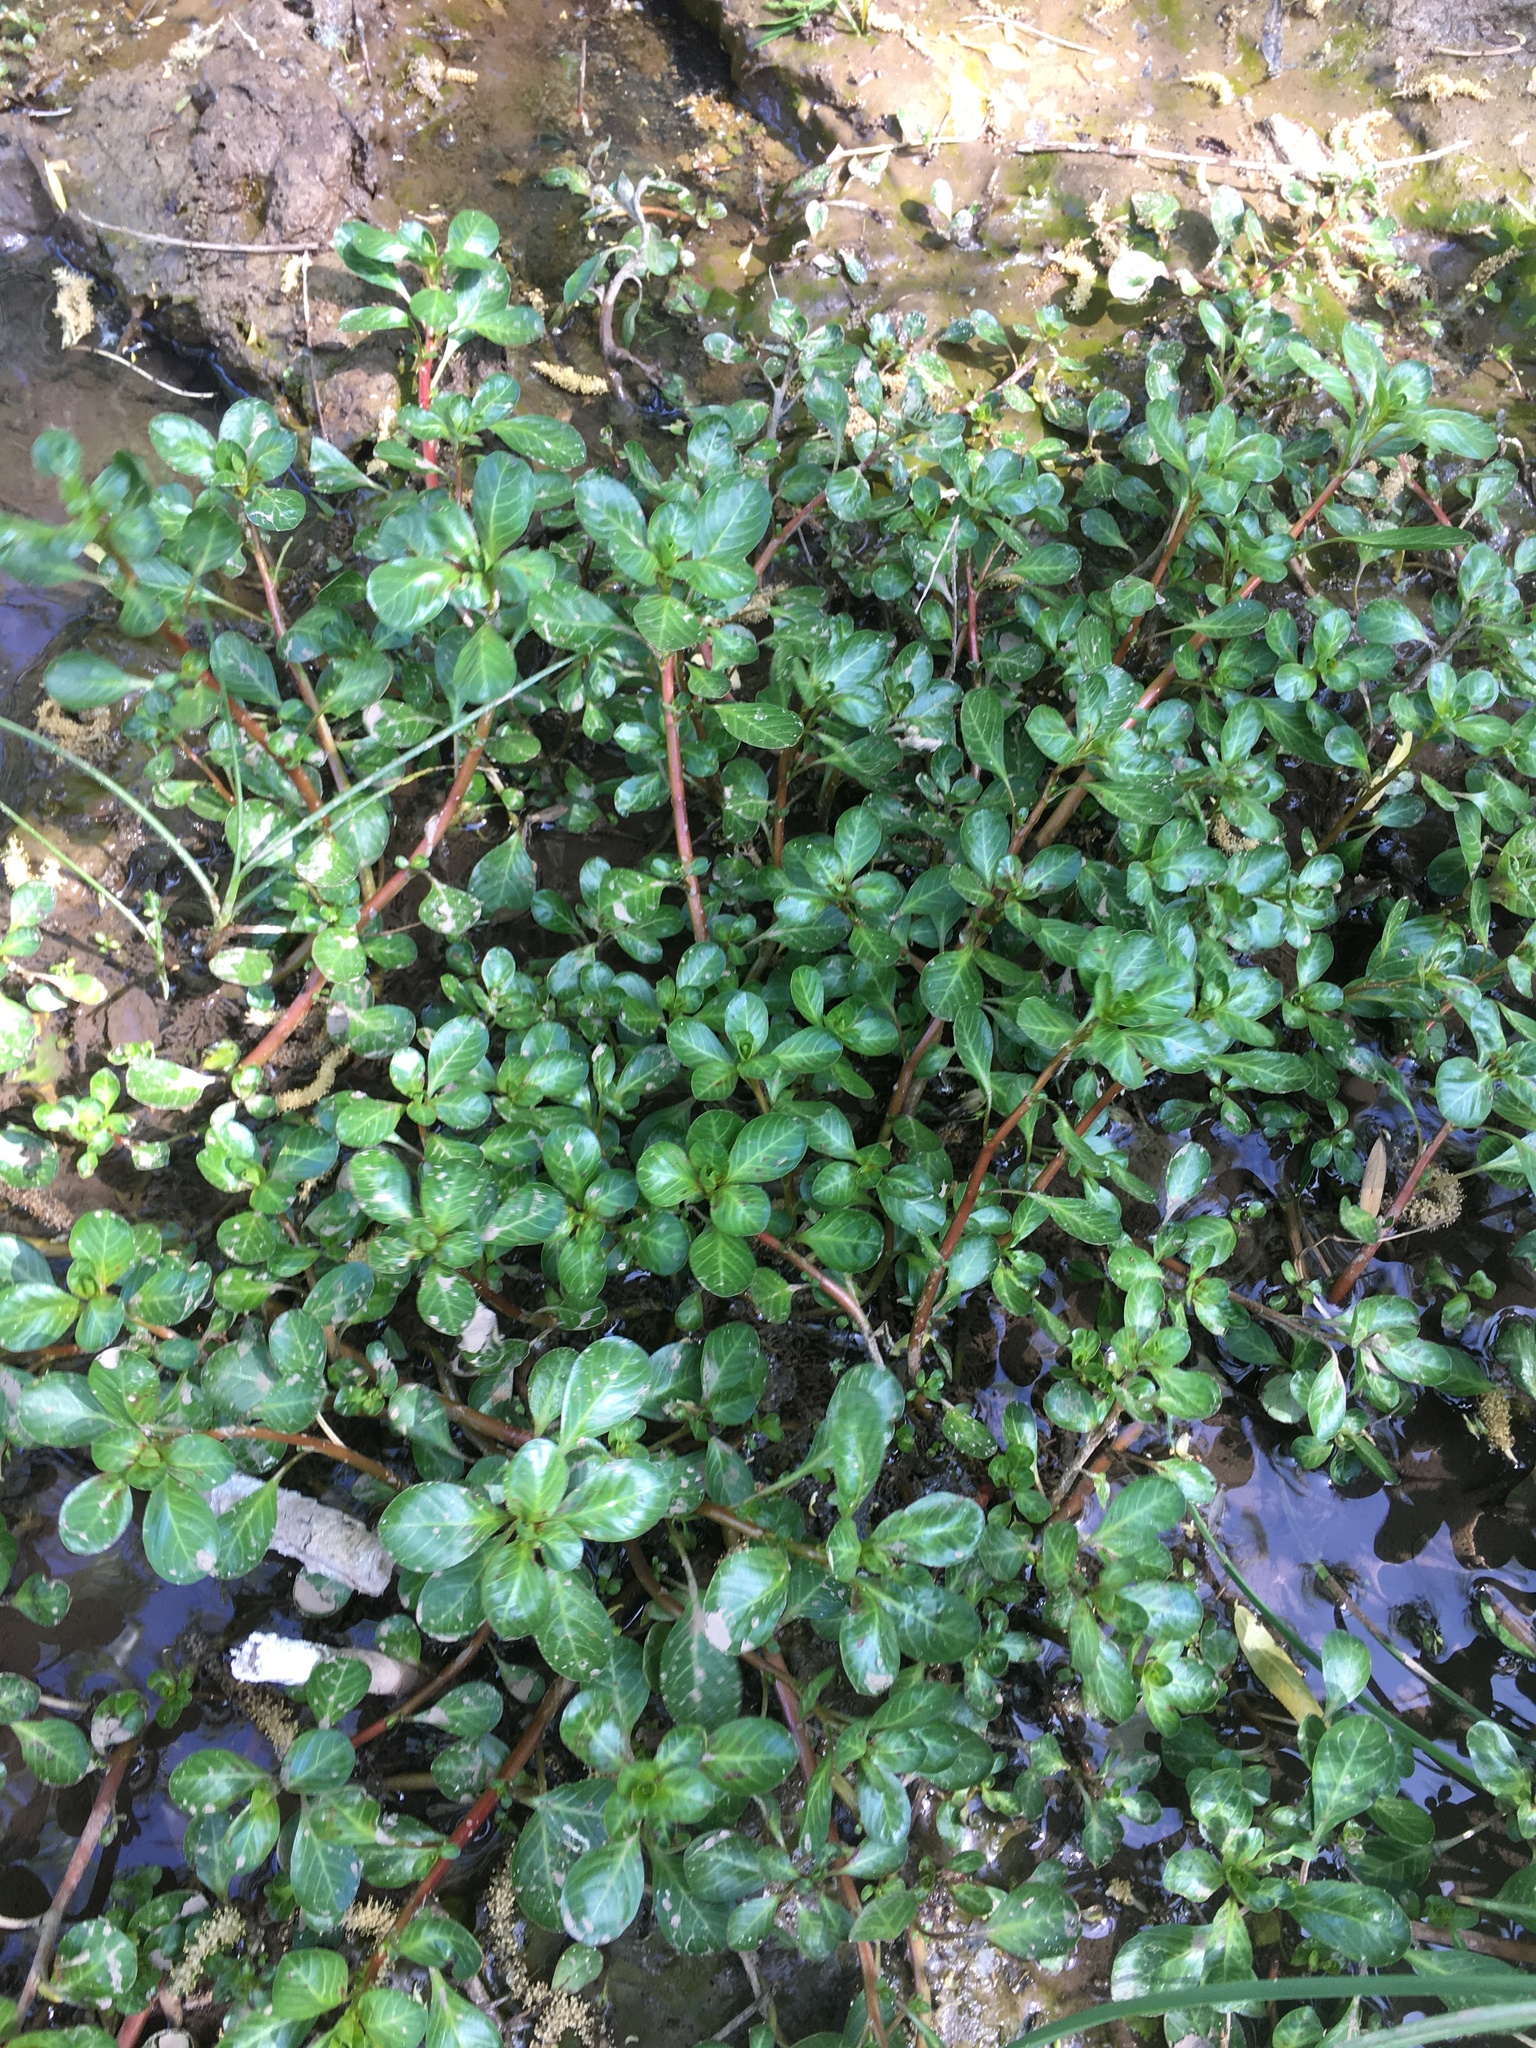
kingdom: Plantae
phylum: Tracheophyta
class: Magnoliopsida
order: Myrtales
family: Onagraceae
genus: Ludwigia
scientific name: Ludwigia peploides
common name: Floating primrose-willow
